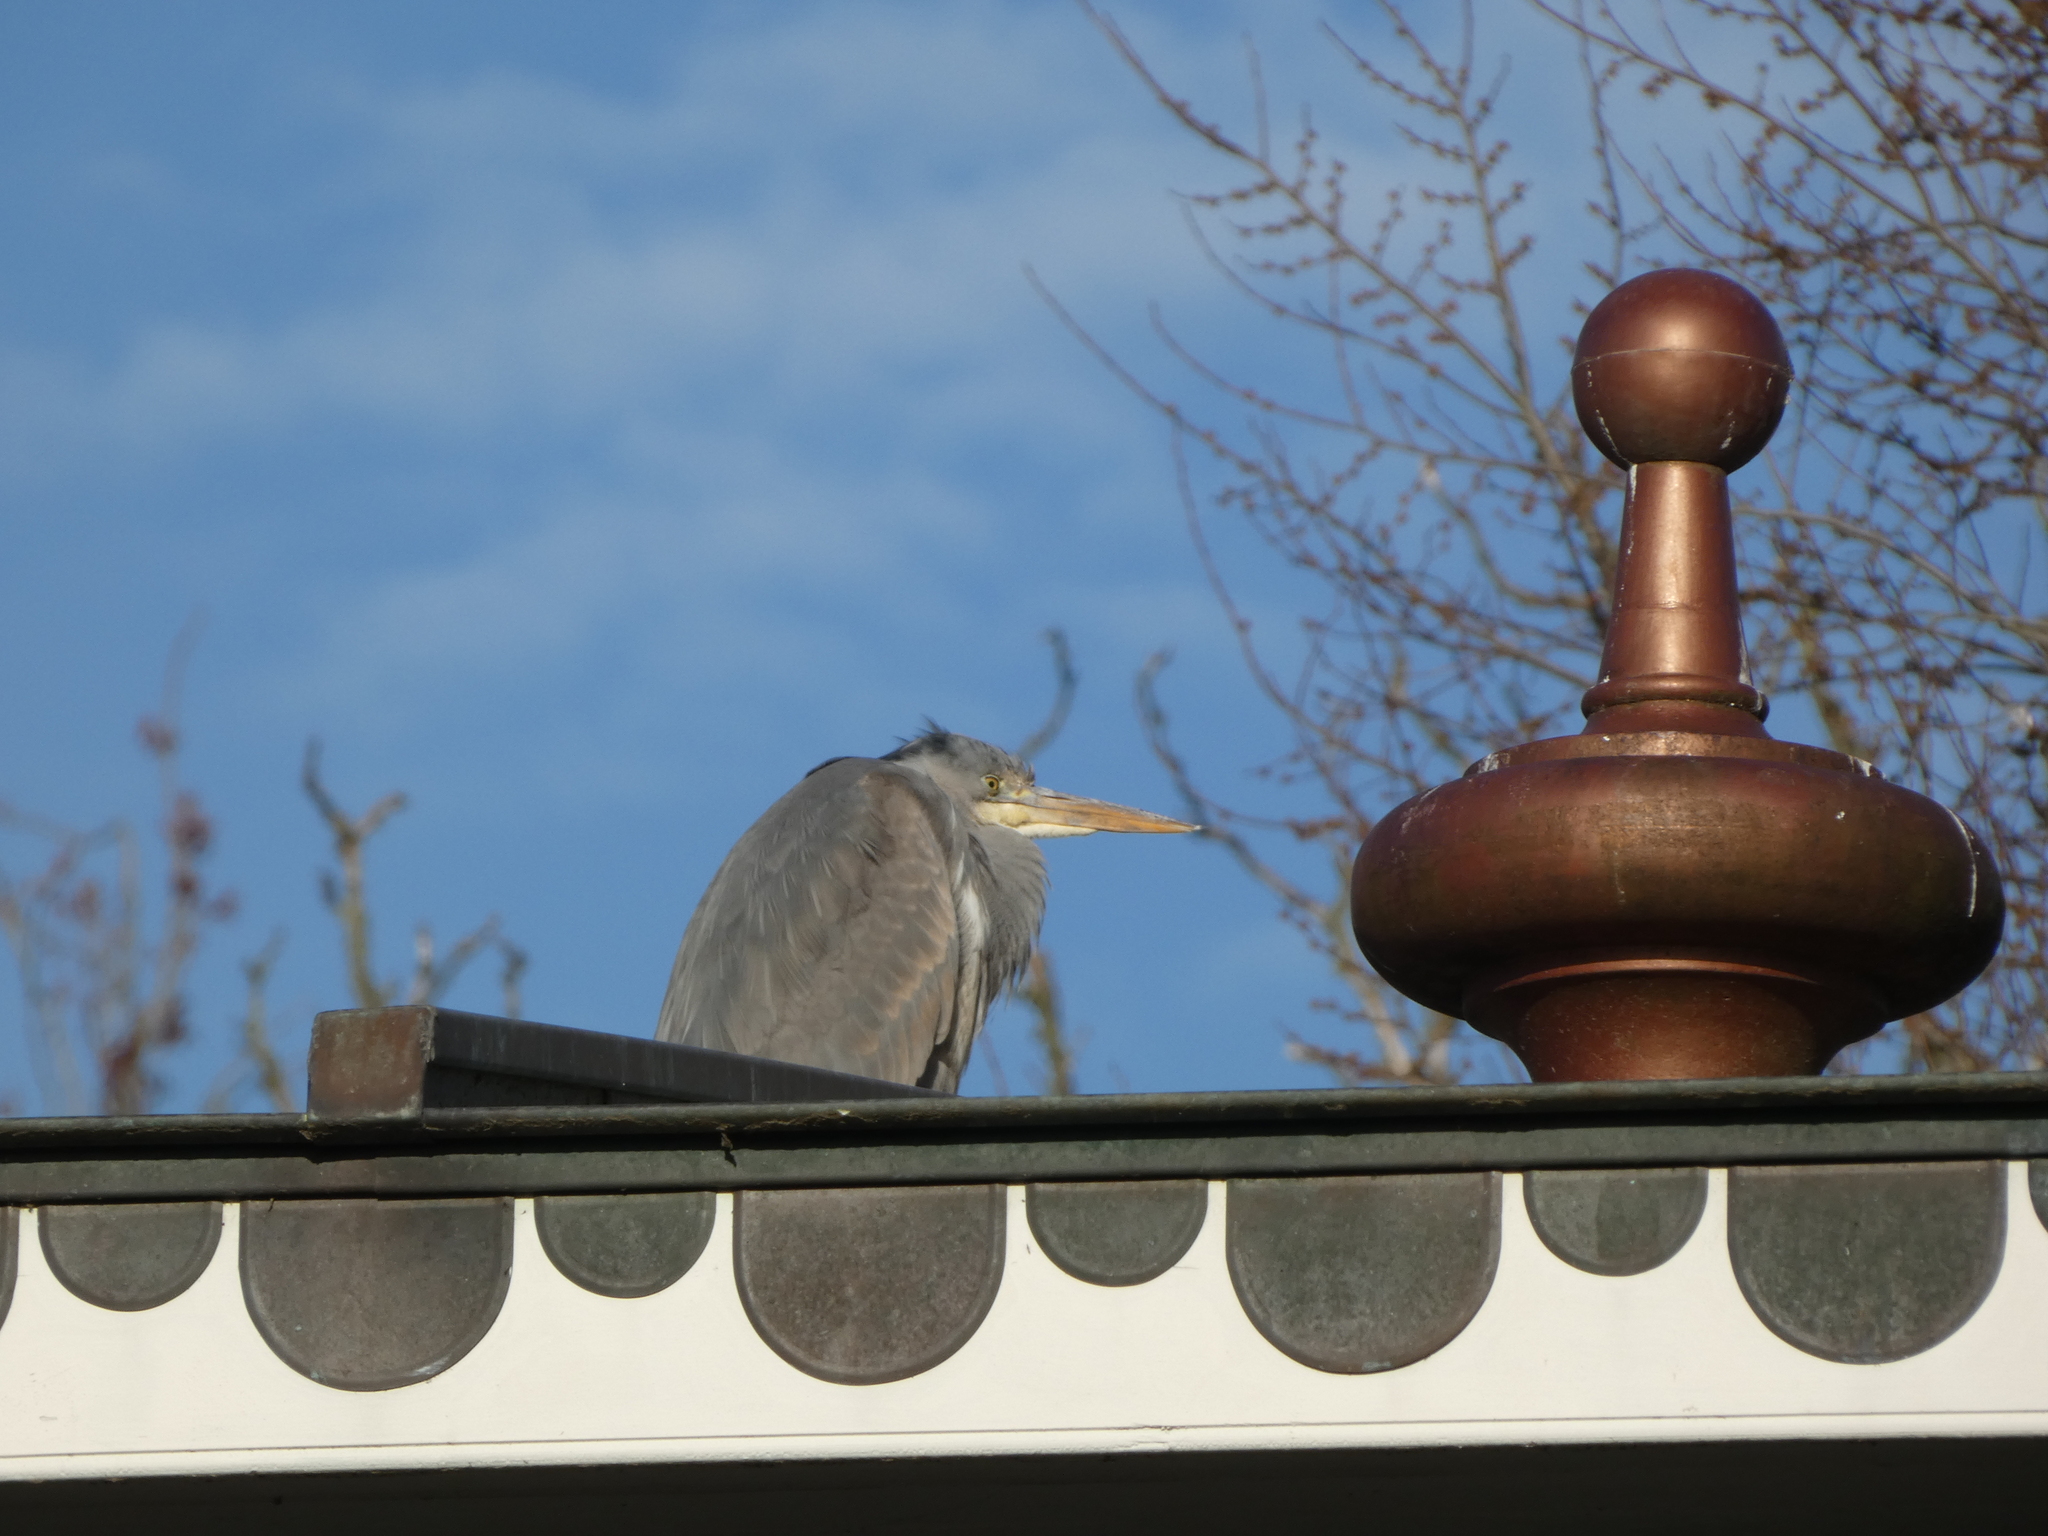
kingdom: Animalia
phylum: Chordata
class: Aves
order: Pelecaniformes
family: Ardeidae
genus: Ardea
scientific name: Ardea cinerea
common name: Grey heron
